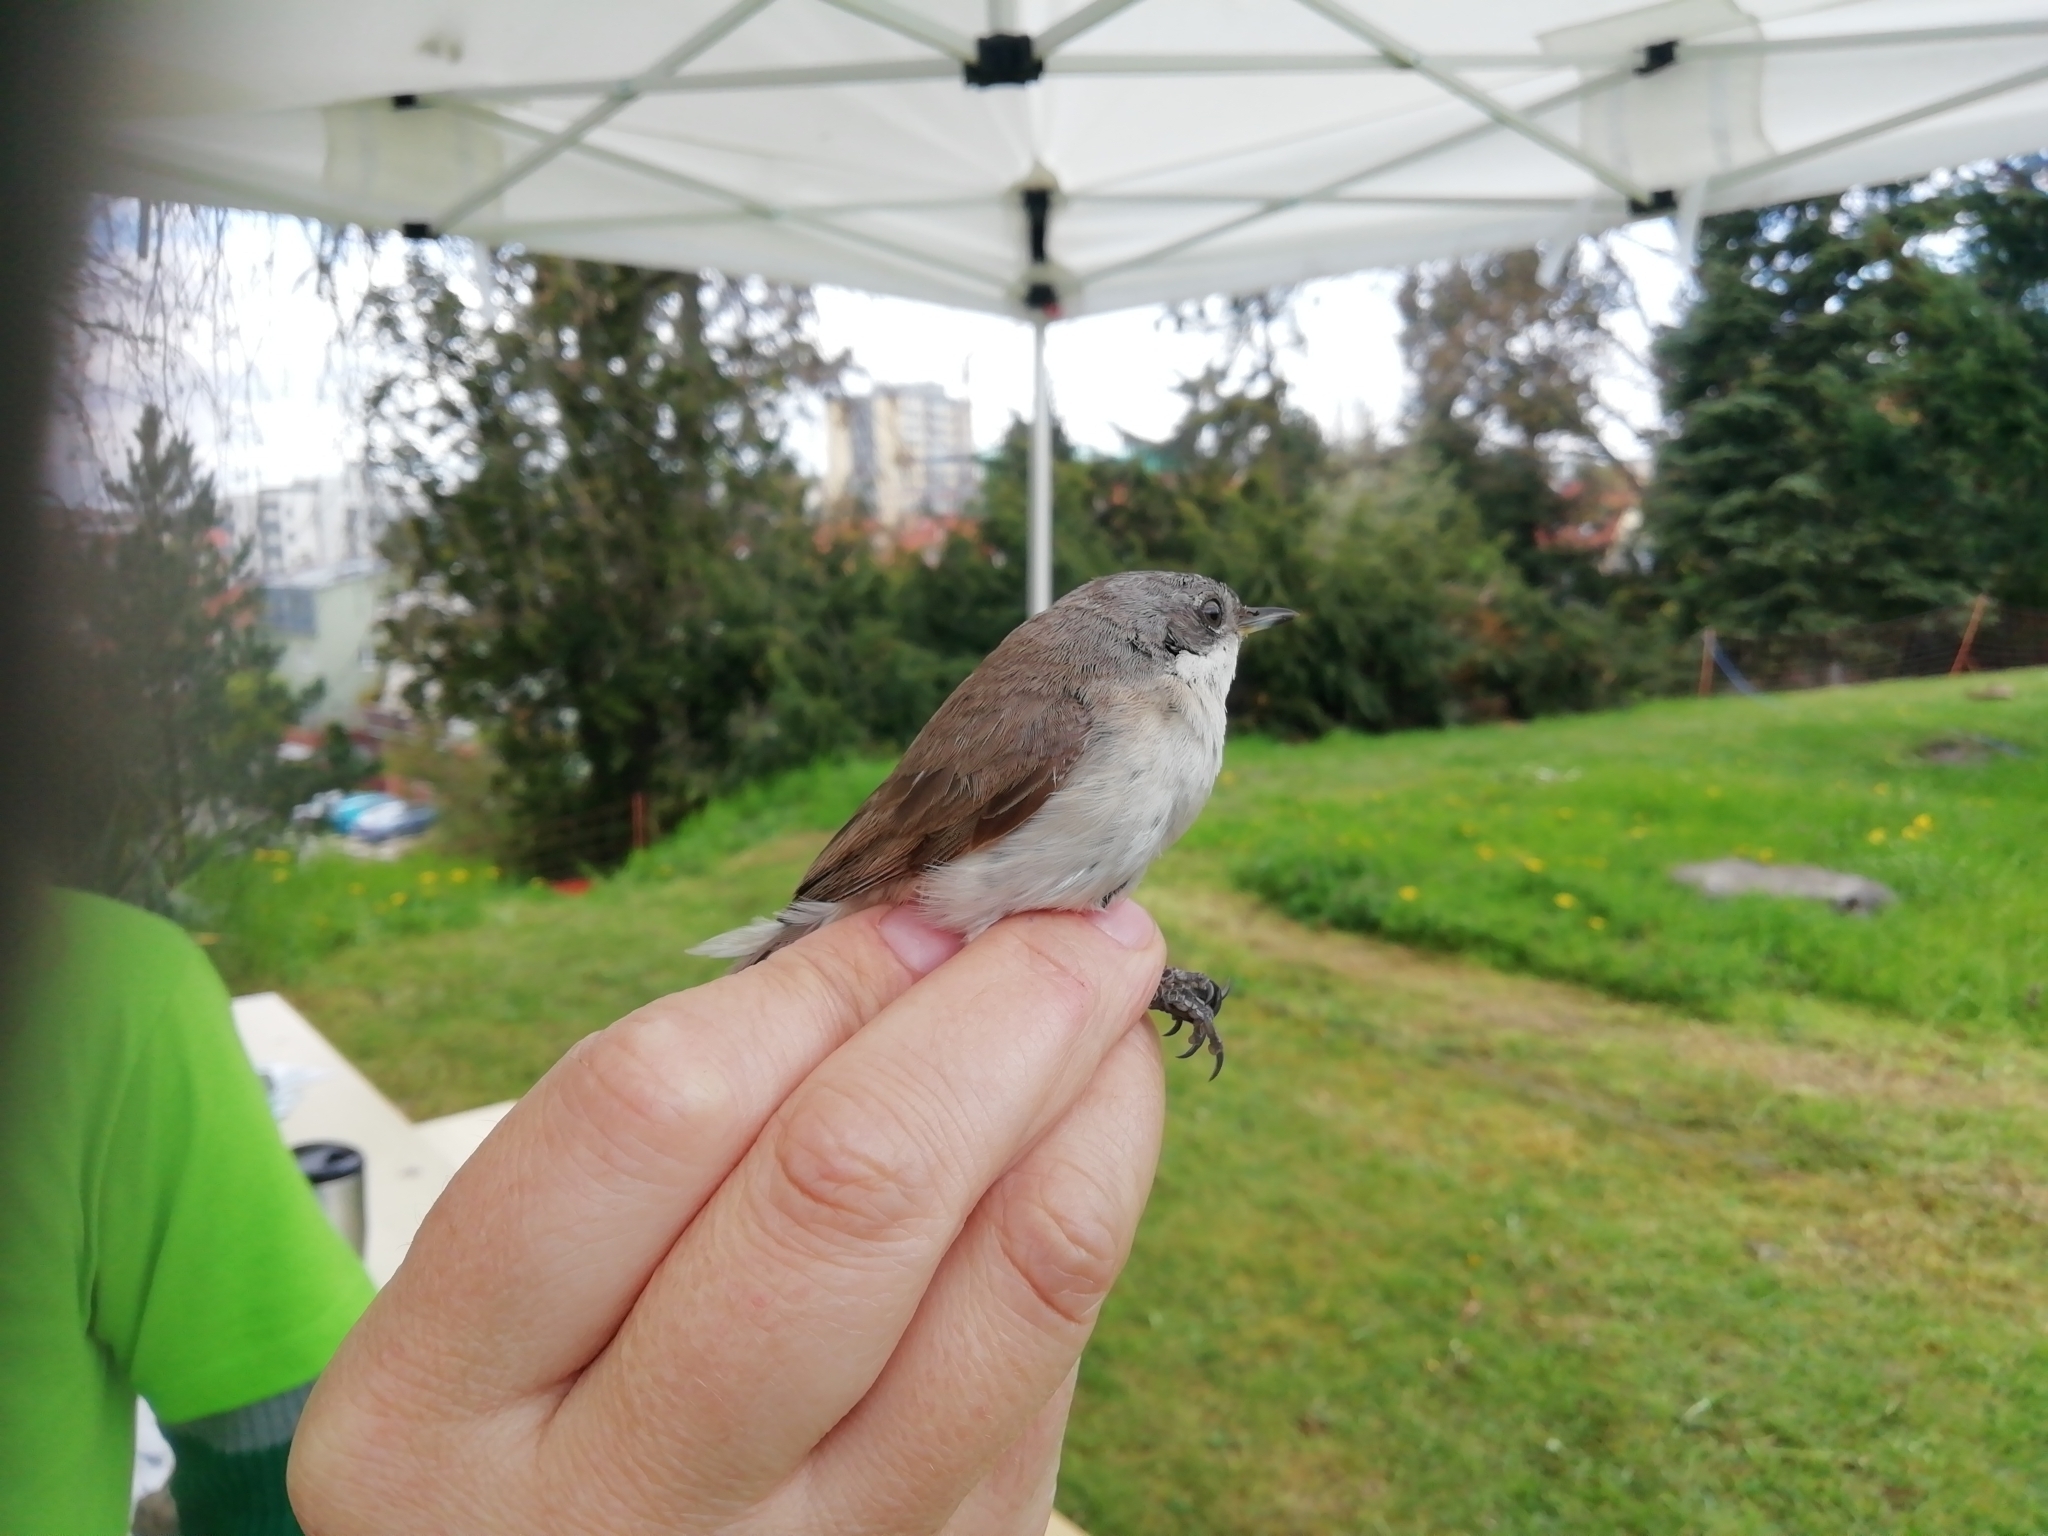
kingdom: Animalia
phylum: Chordata
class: Aves
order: Passeriformes
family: Sylviidae
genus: Sylvia
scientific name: Sylvia curruca
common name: Lesser whitethroat
